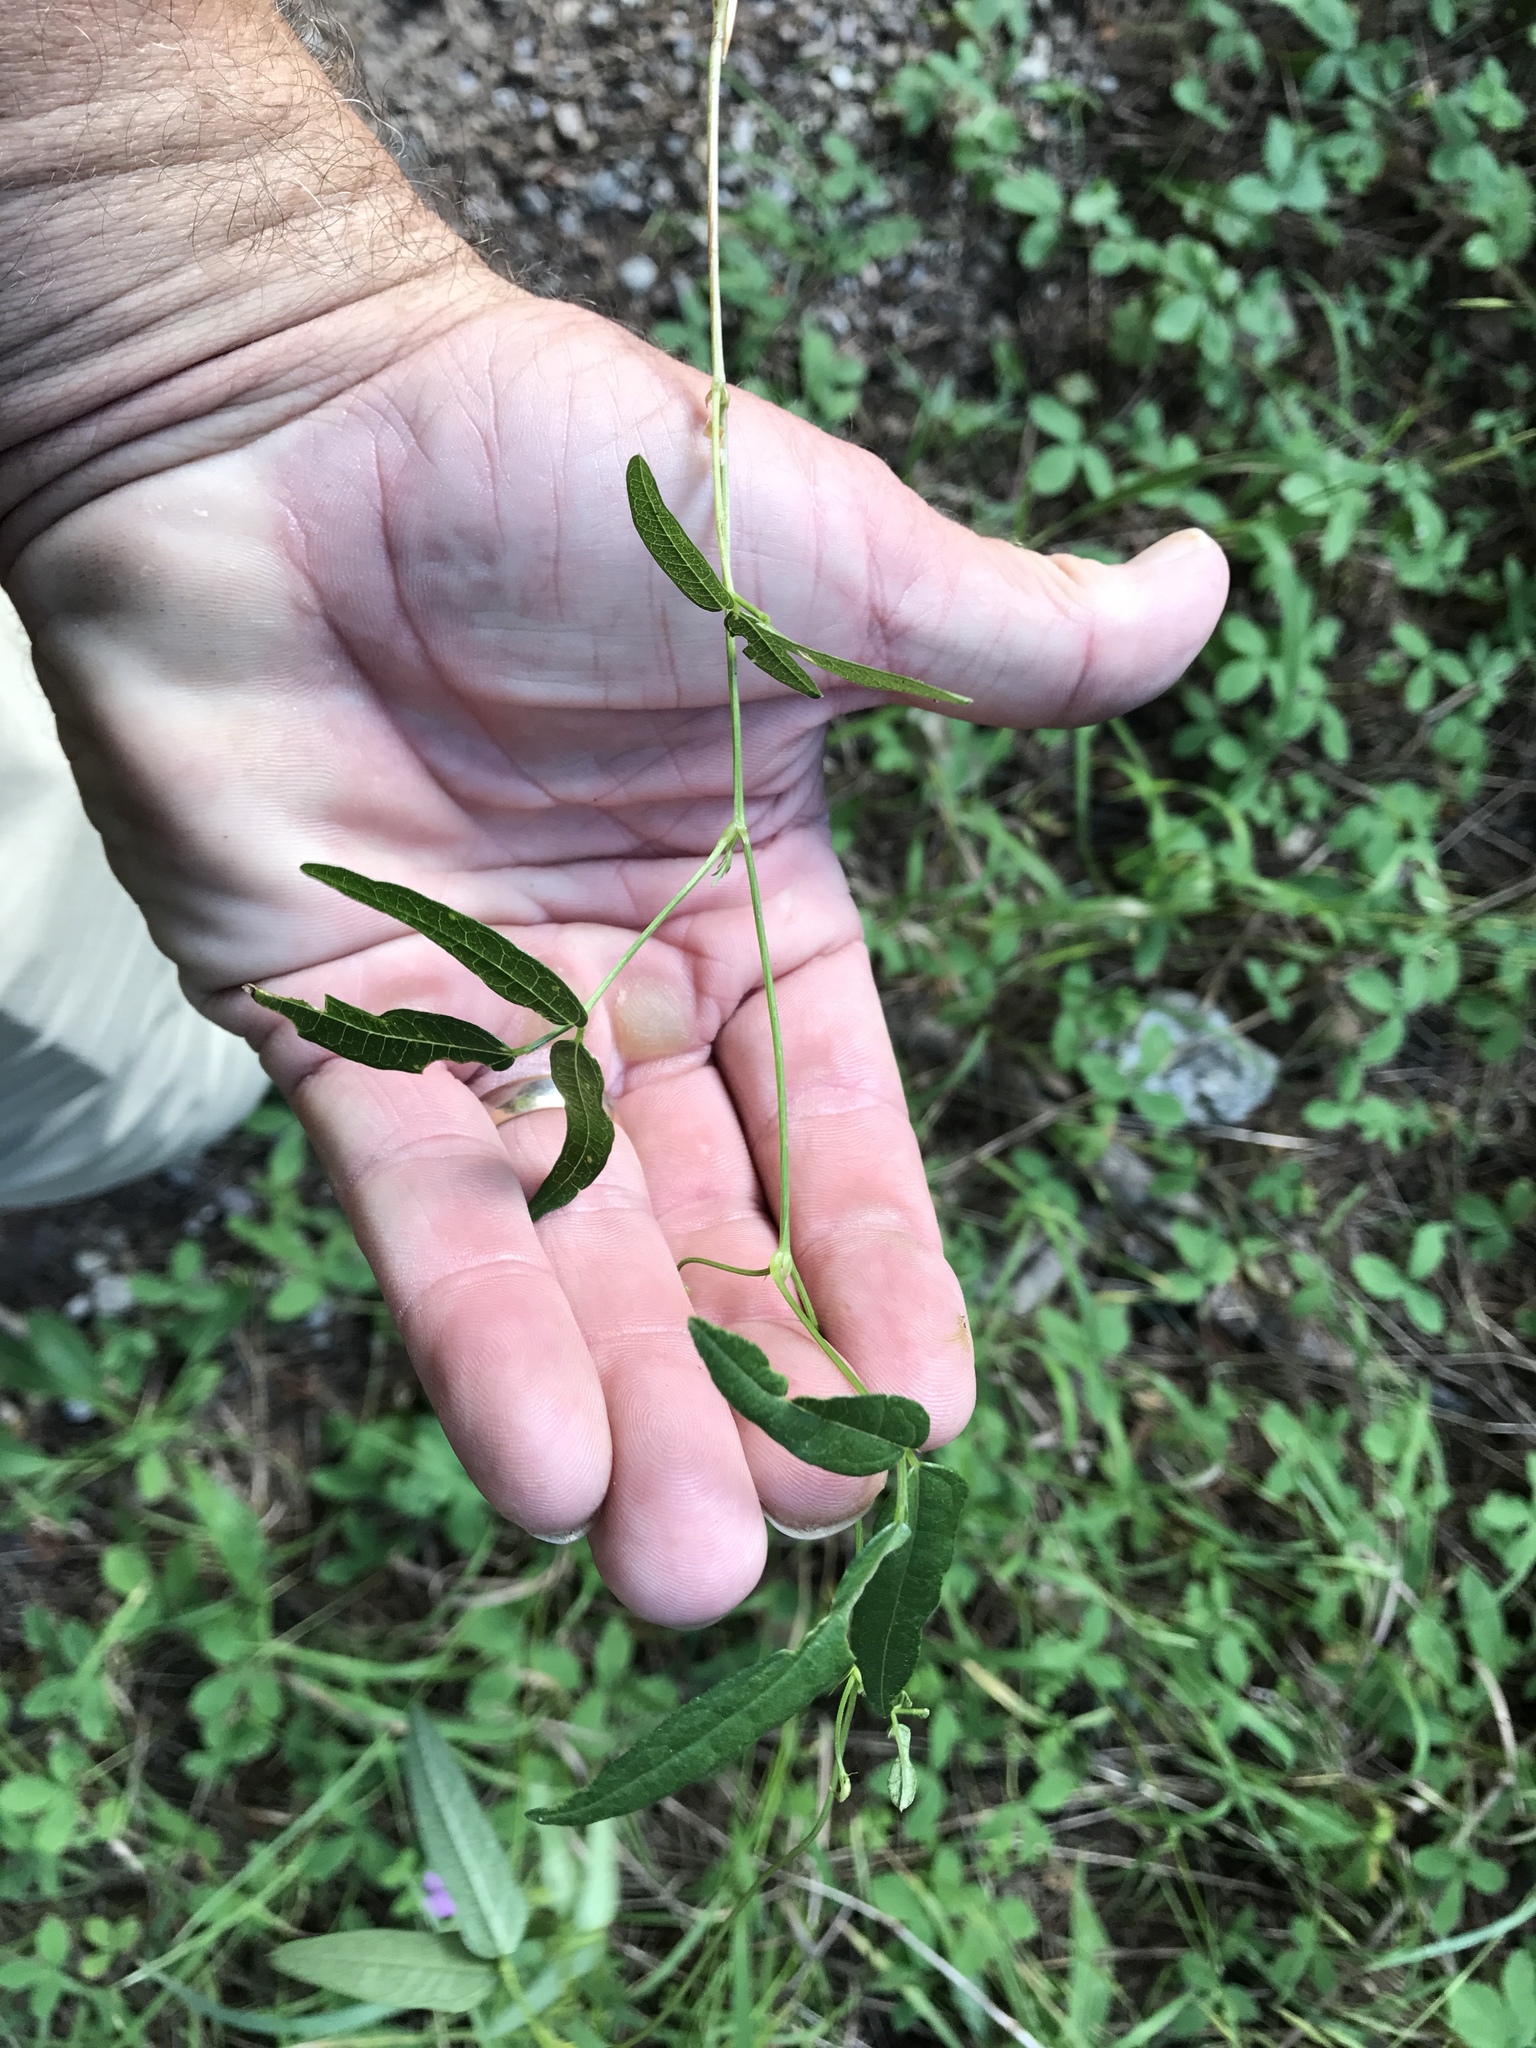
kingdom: Plantae
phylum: Tracheophyta
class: Magnoliopsida
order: Fabales
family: Fabaceae
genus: Phaseolus
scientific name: Phaseolus parvulus
